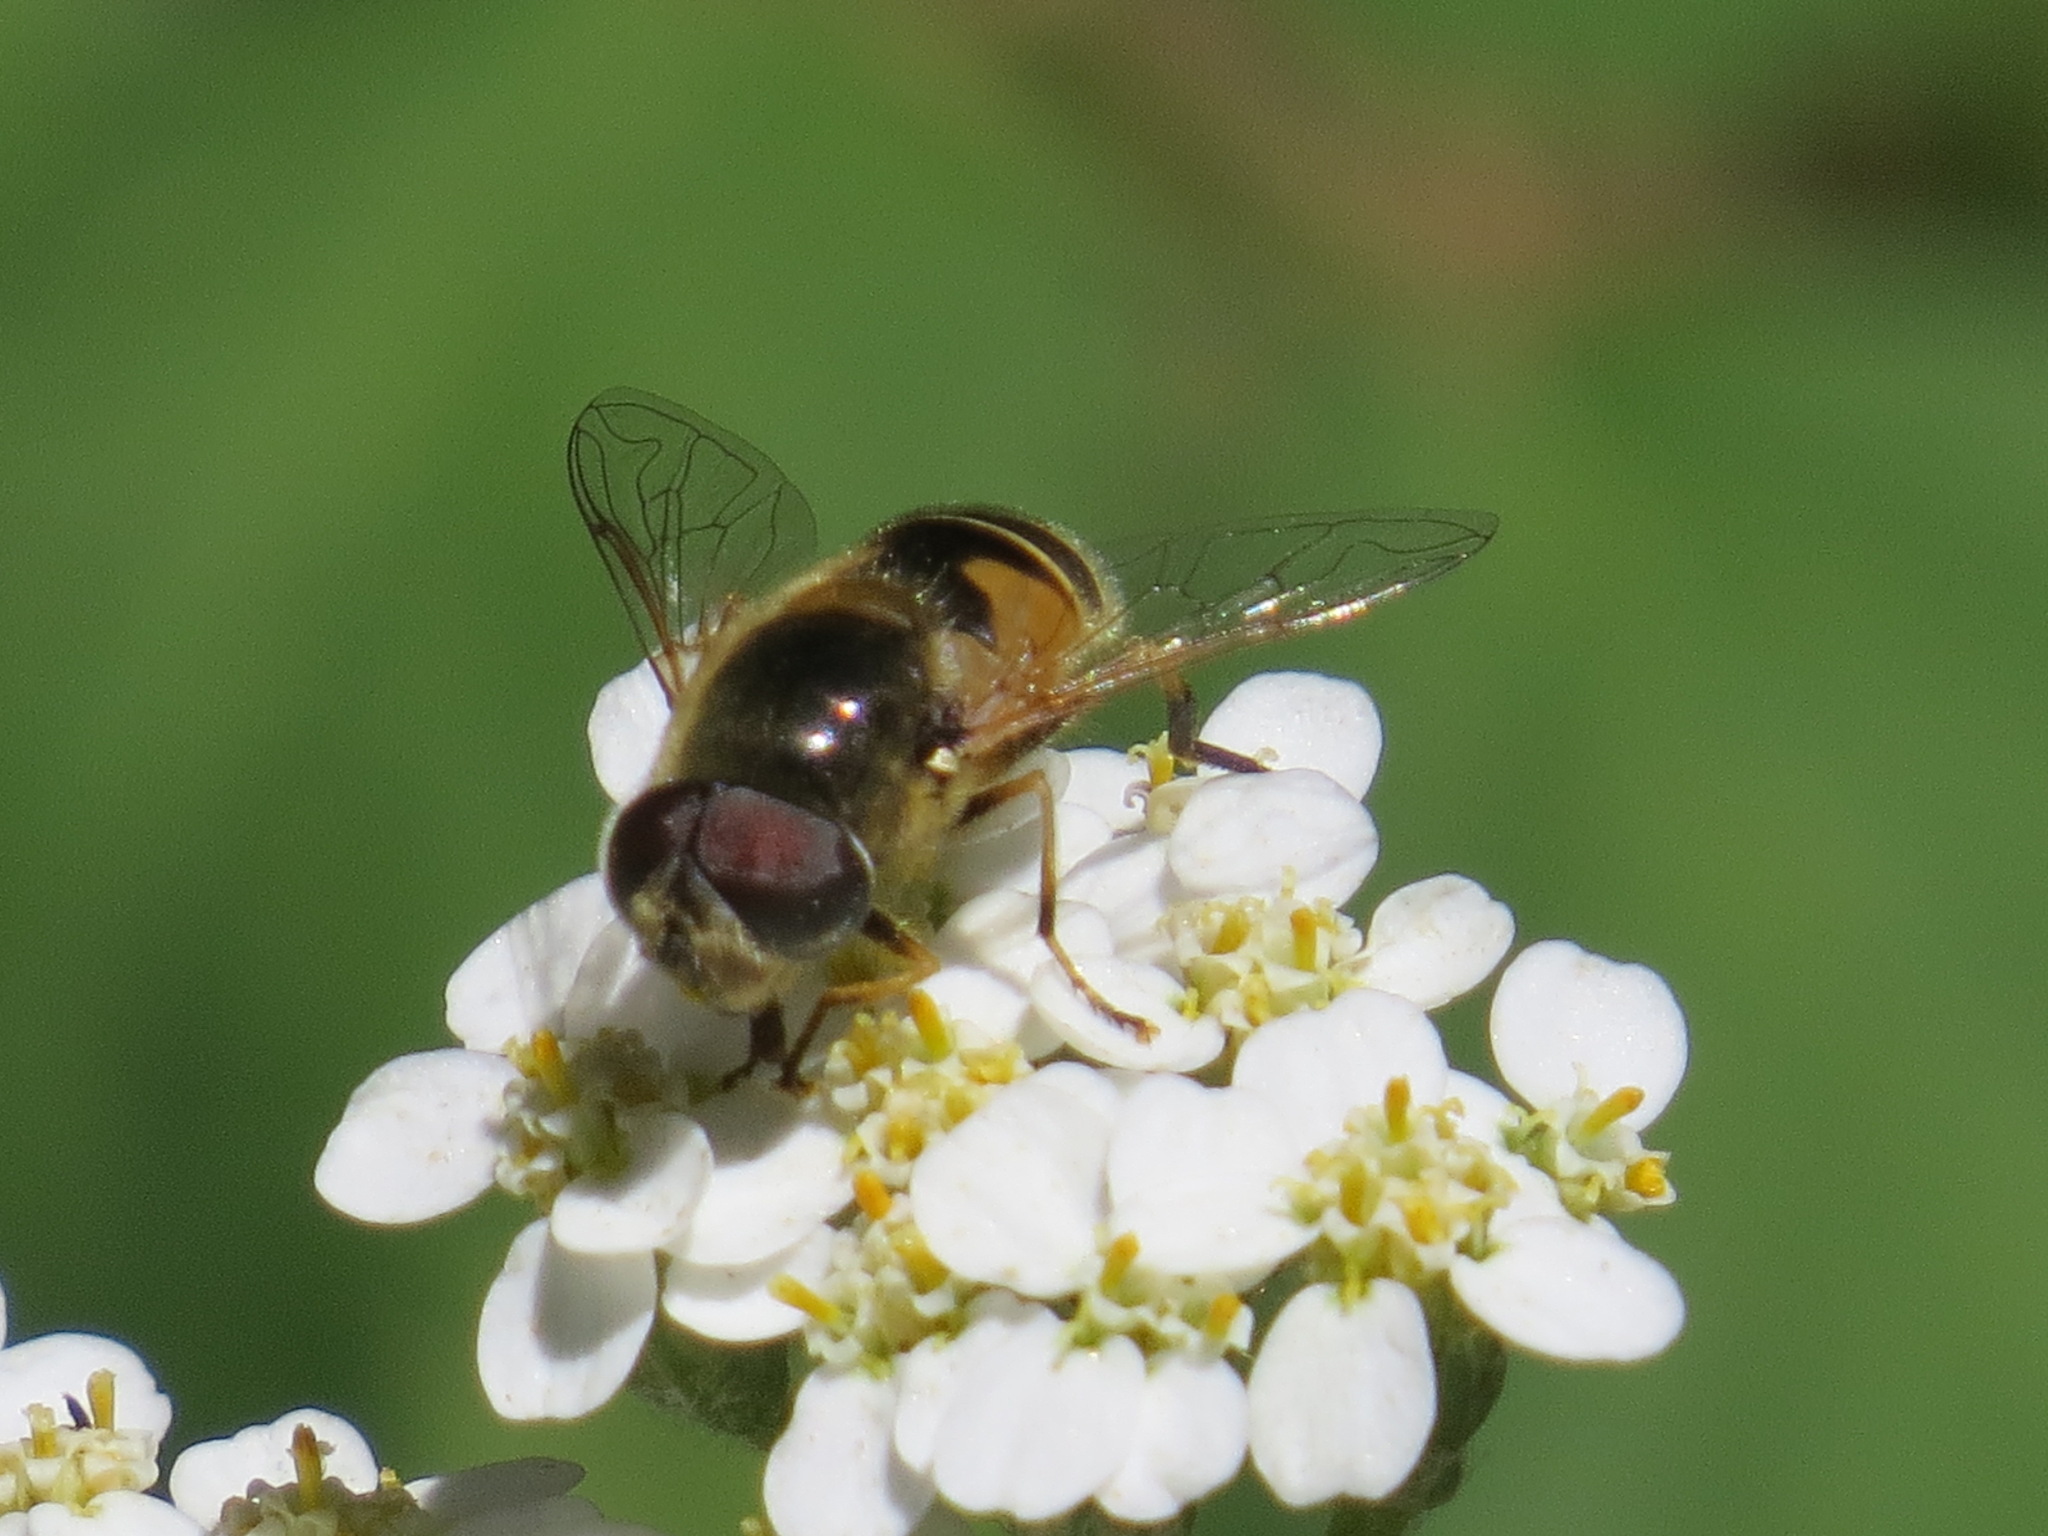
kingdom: Animalia
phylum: Arthropoda
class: Insecta
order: Diptera
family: Syrphidae
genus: Eristalis
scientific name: Eristalis hirta
